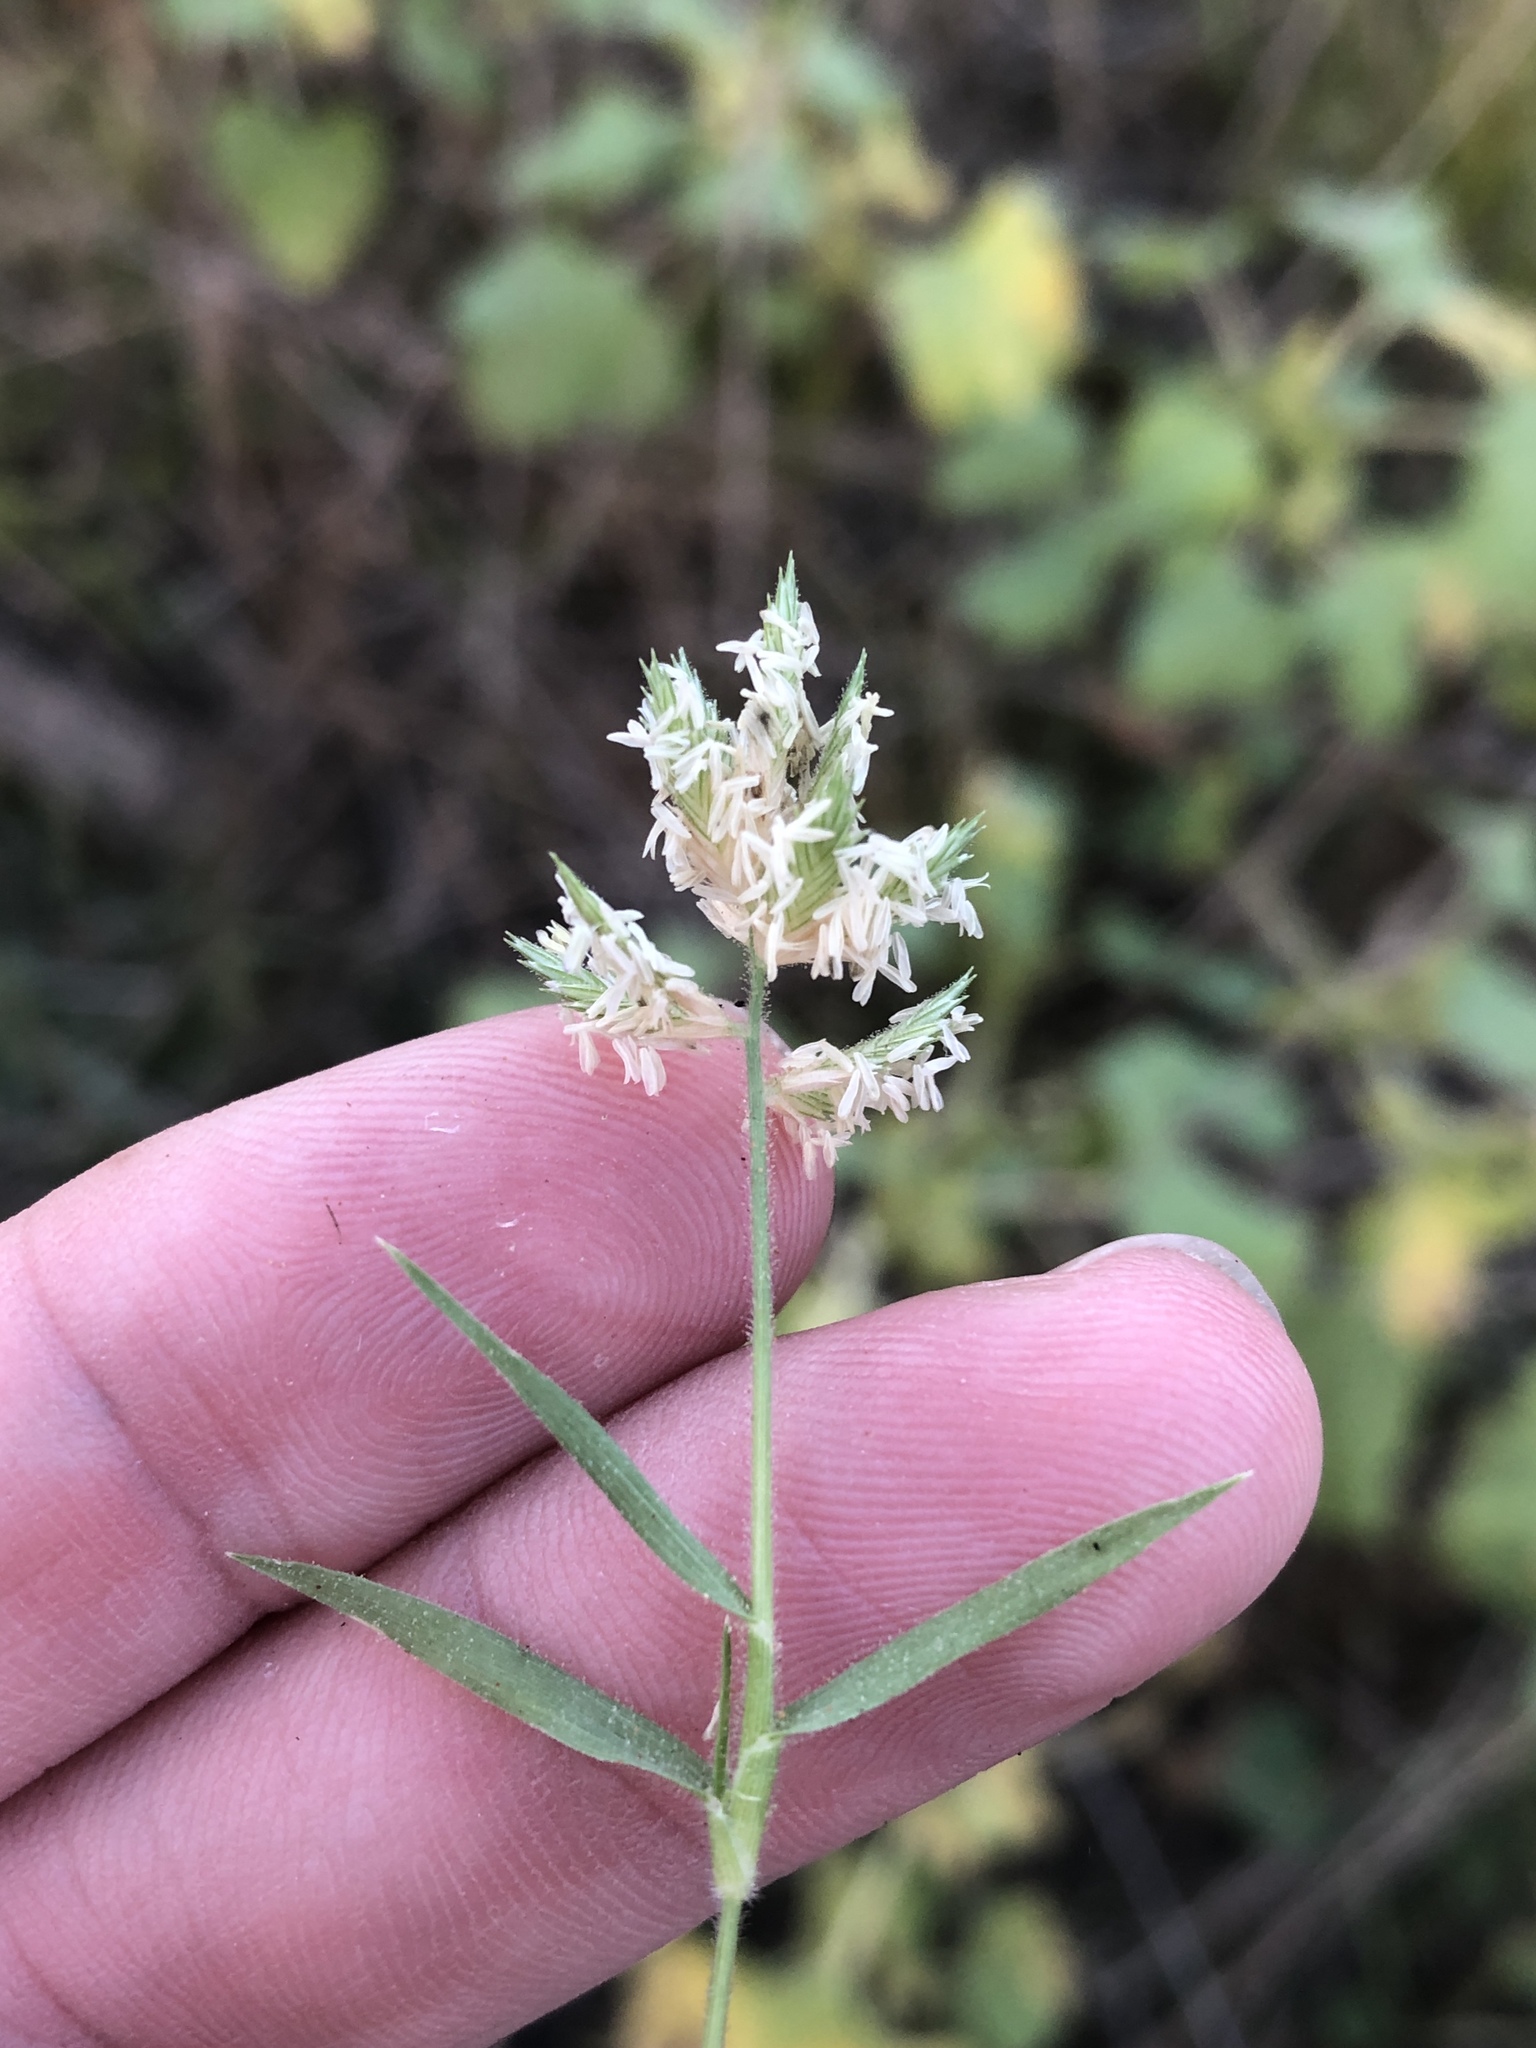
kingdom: Plantae
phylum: Tracheophyta
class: Liliopsida
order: Poales
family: Poaceae
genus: Eragrostis
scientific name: Eragrostis reptans
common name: Creeping love grass
